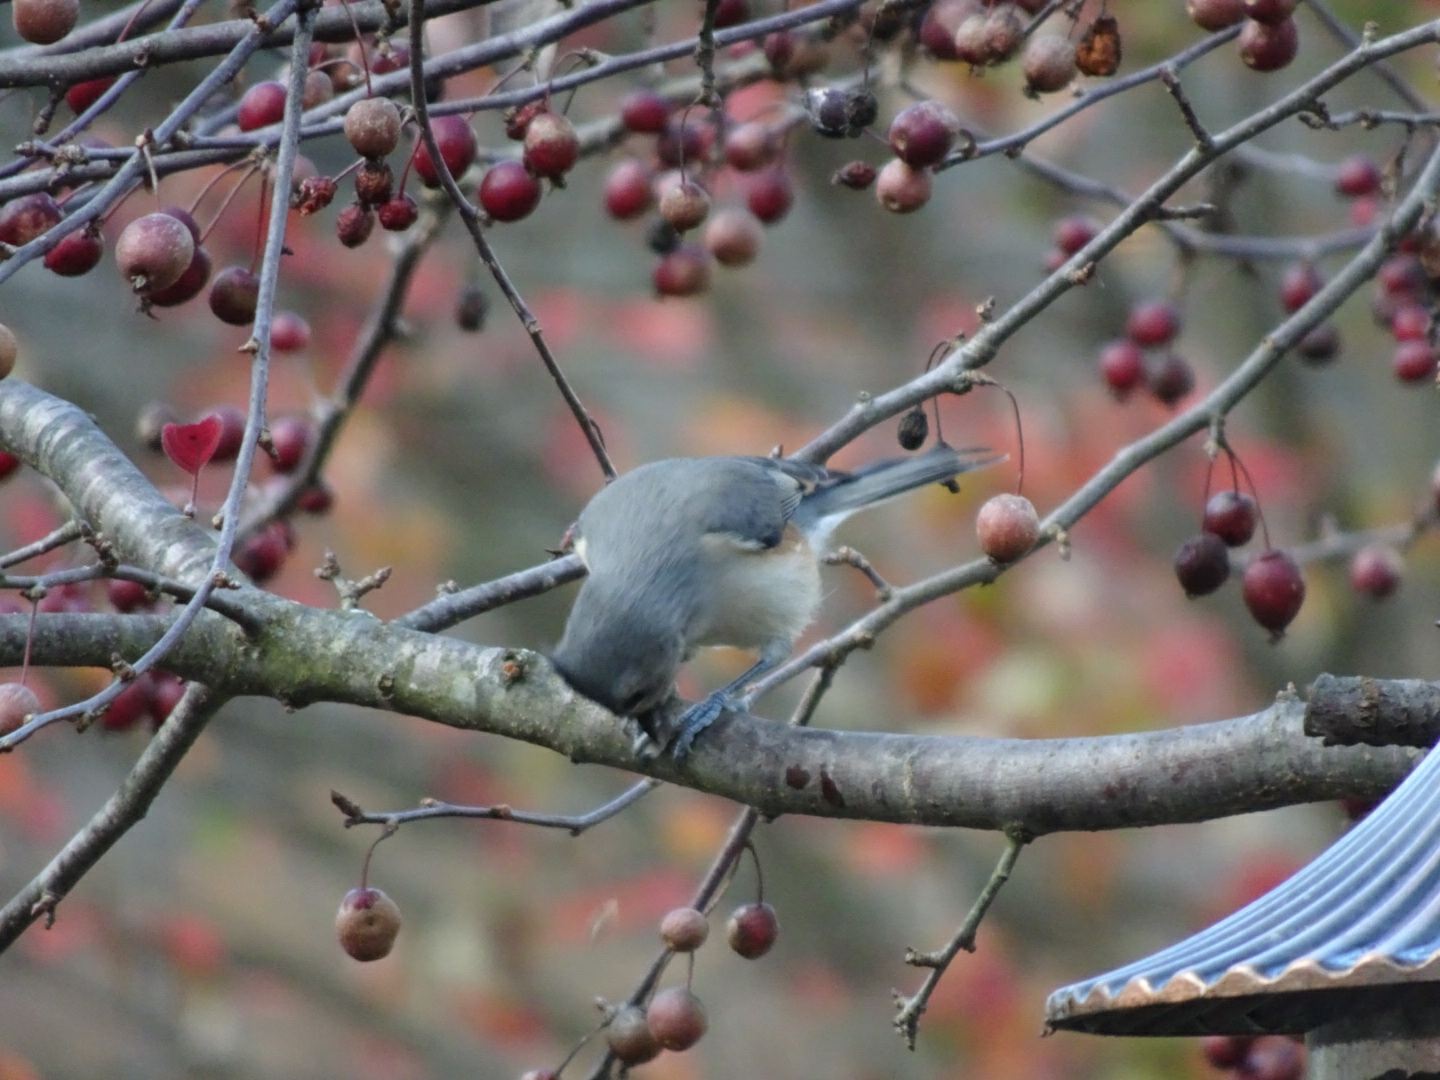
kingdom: Animalia
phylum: Chordata
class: Aves
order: Passeriformes
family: Paridae
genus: Baeolophus
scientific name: Baeolophus bicolor
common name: Tufted titmouse
